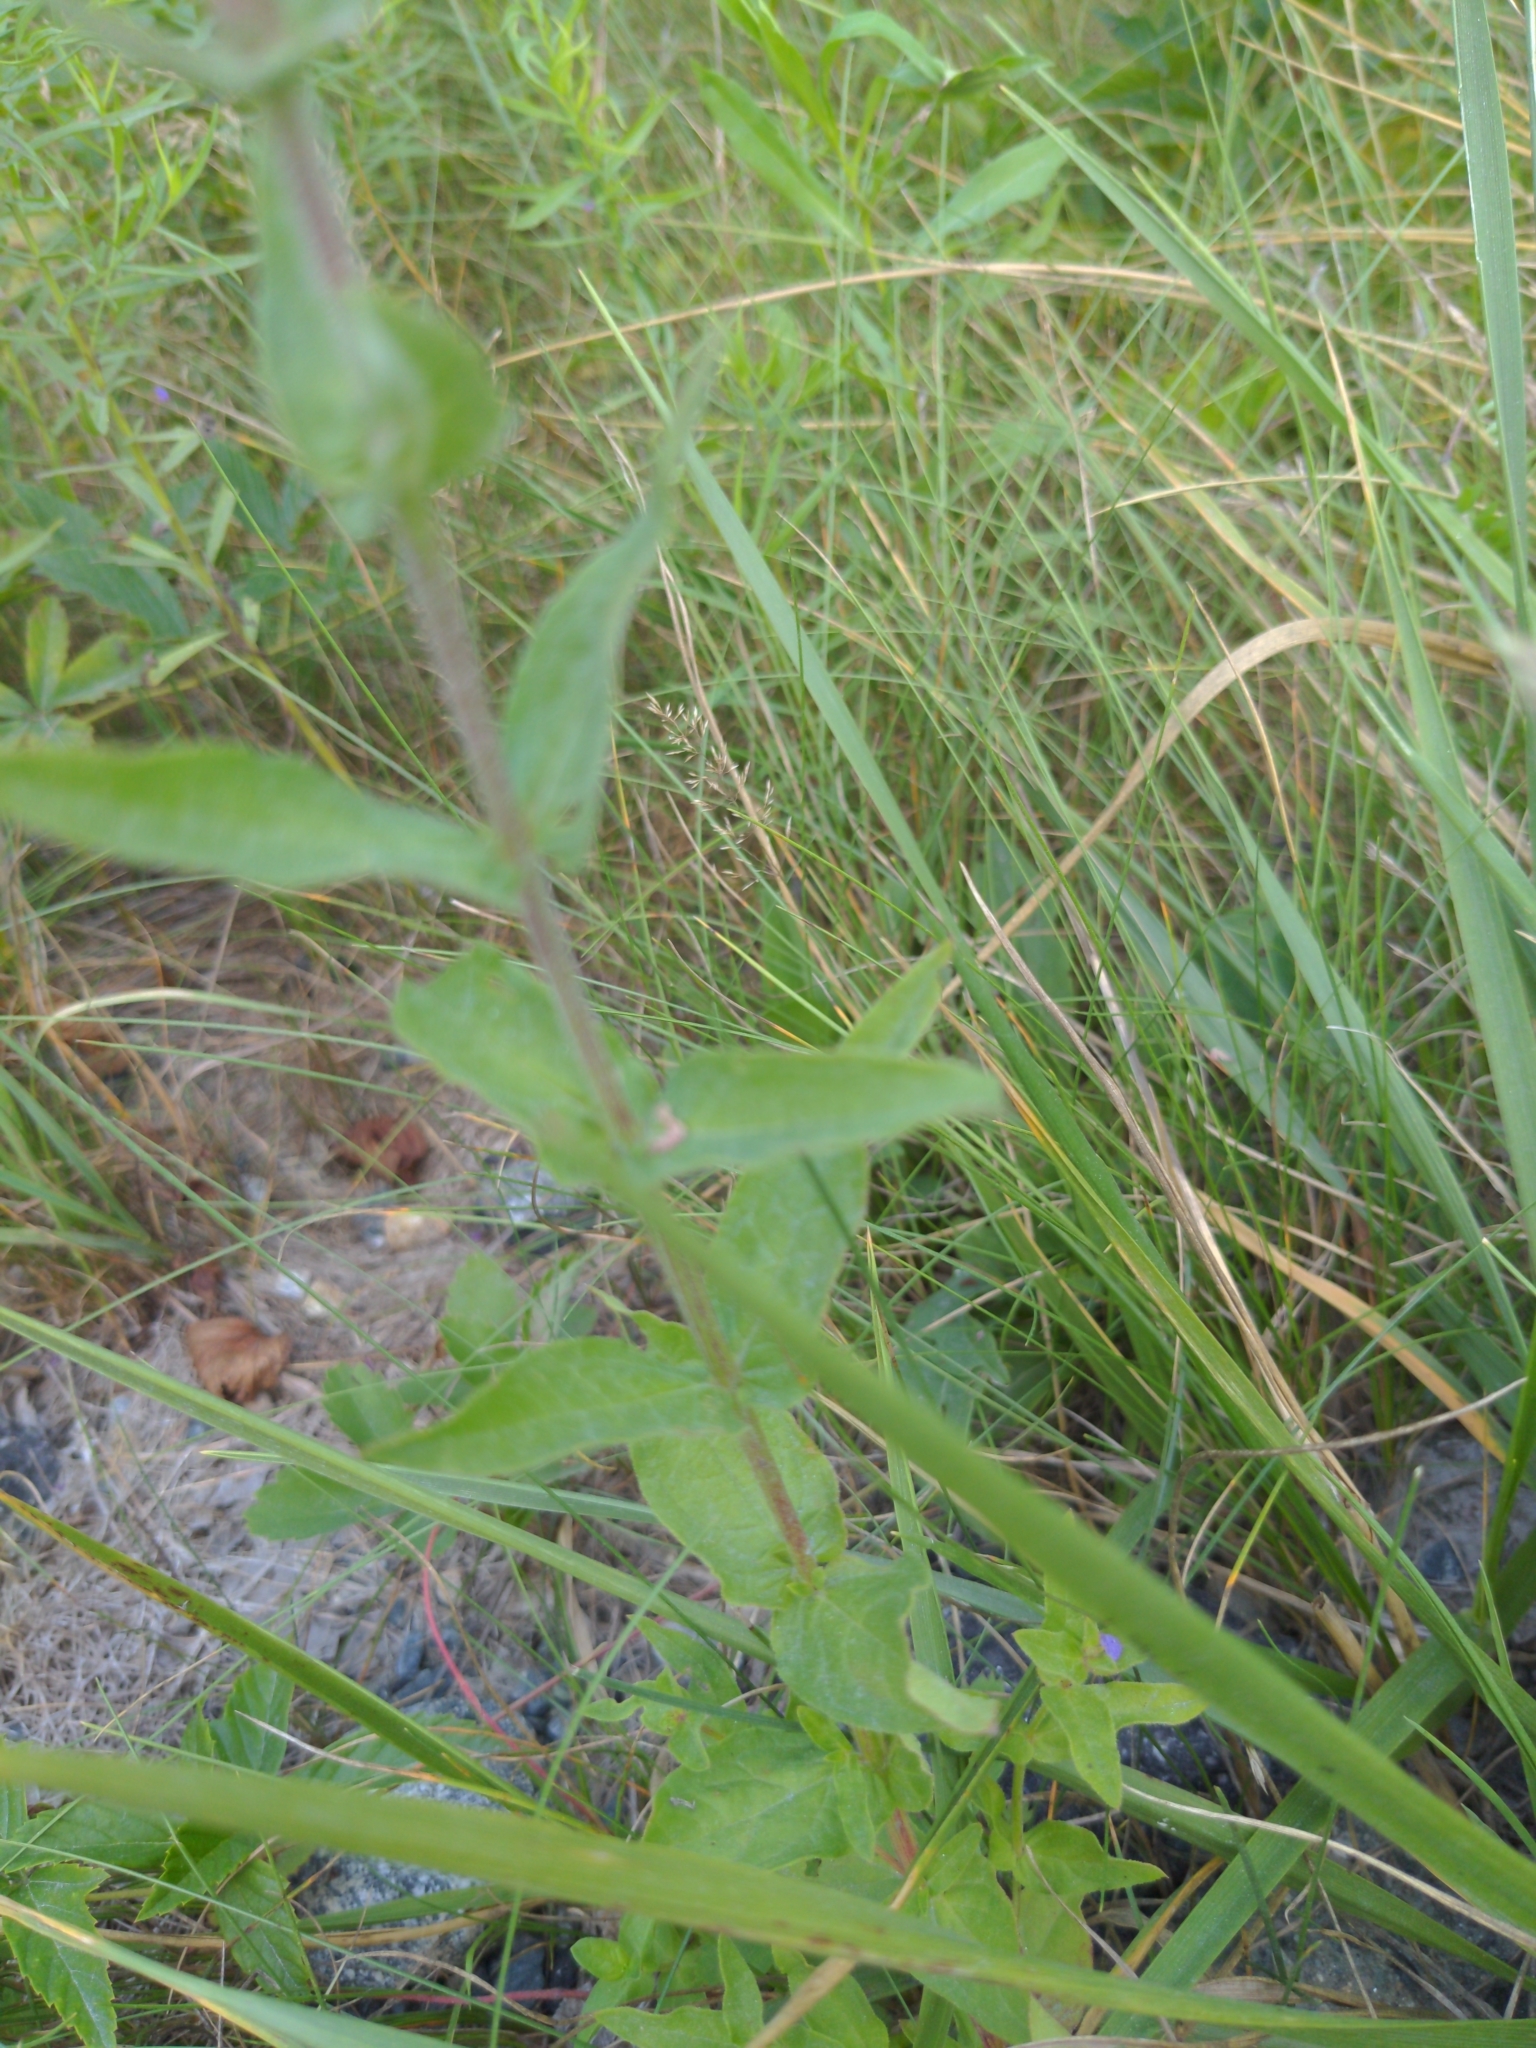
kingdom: Plantae
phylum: Tracheophyta
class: Magnoliopsida
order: Myrtales
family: Lythraceae
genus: Lythrum
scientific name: Lythrum salicaria
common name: Purple loosestrife
